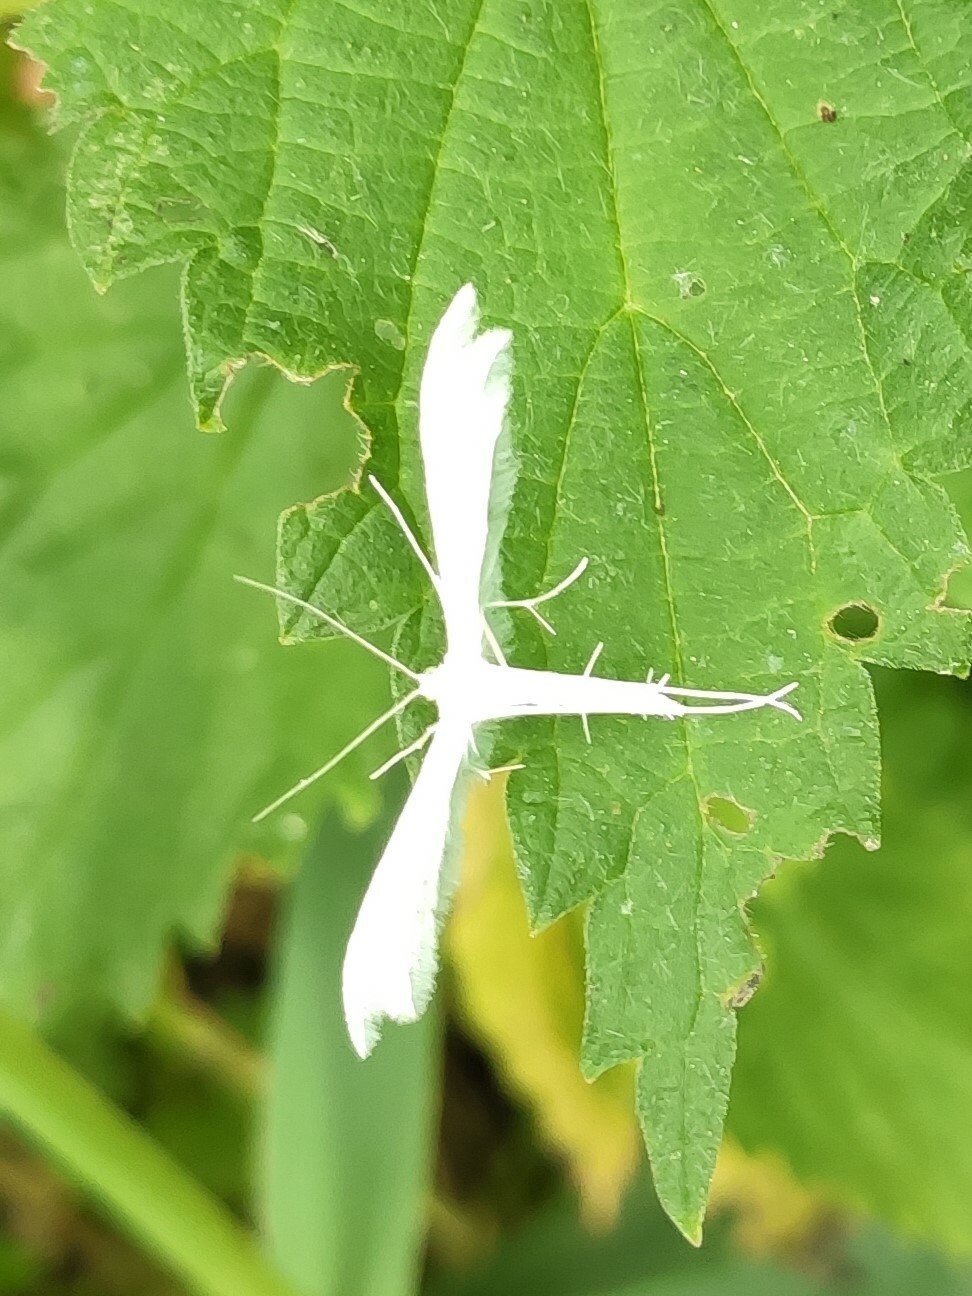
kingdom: Animalia
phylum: Arthropoda
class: Insecta
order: Lepidoptera
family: Pterophoridae
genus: Pterophorus
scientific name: Pterophorus pentadactyla
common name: White plume moth
